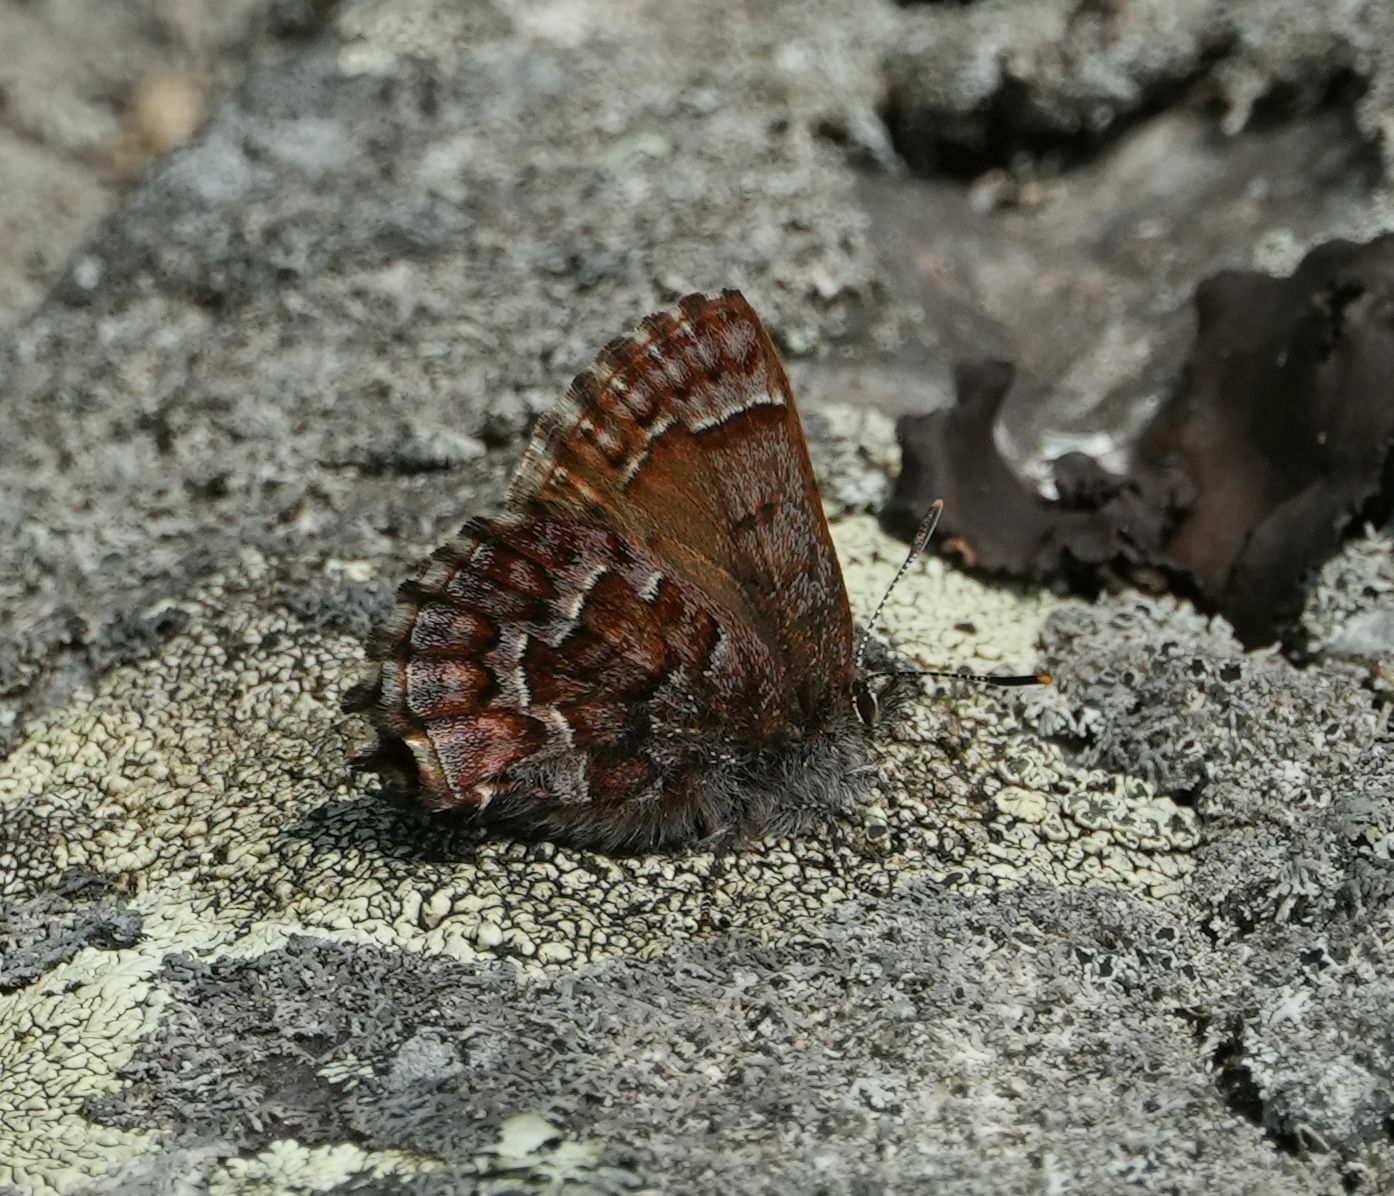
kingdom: Animalia
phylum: Arthropoda
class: Insecta
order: Lepidoptera
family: Lycaenidae
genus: Incisalia
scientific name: Incisalia niphon
